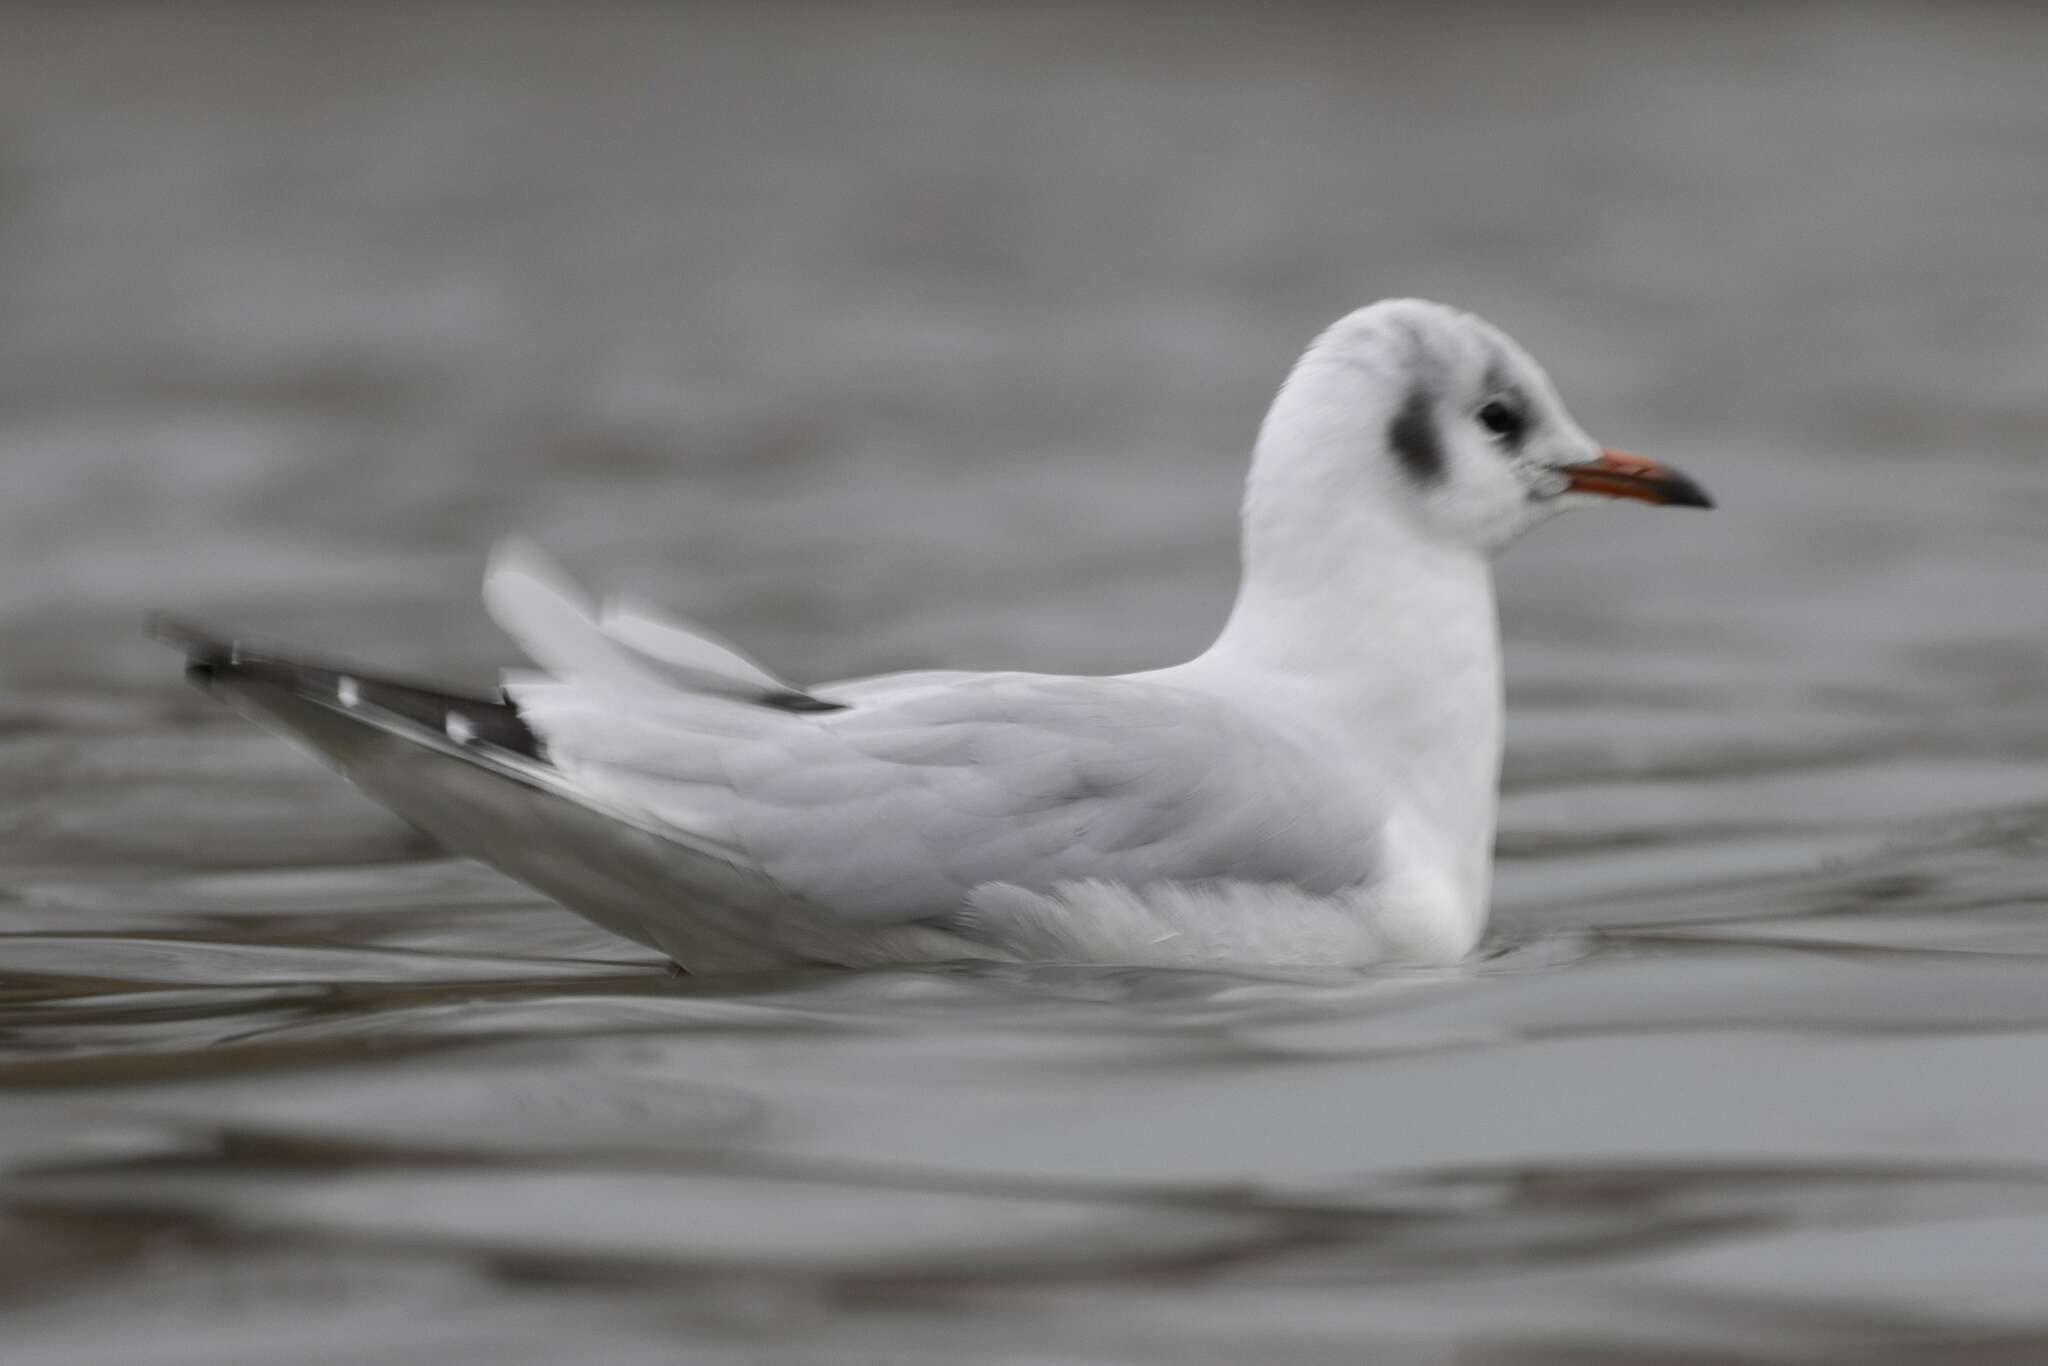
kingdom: Animalia
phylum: Chordata
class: Aves
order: Charadriiformes
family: Laridae
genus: Chroicocephalus
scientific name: Chroicocephalus ridibundus
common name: Black-headed gull
